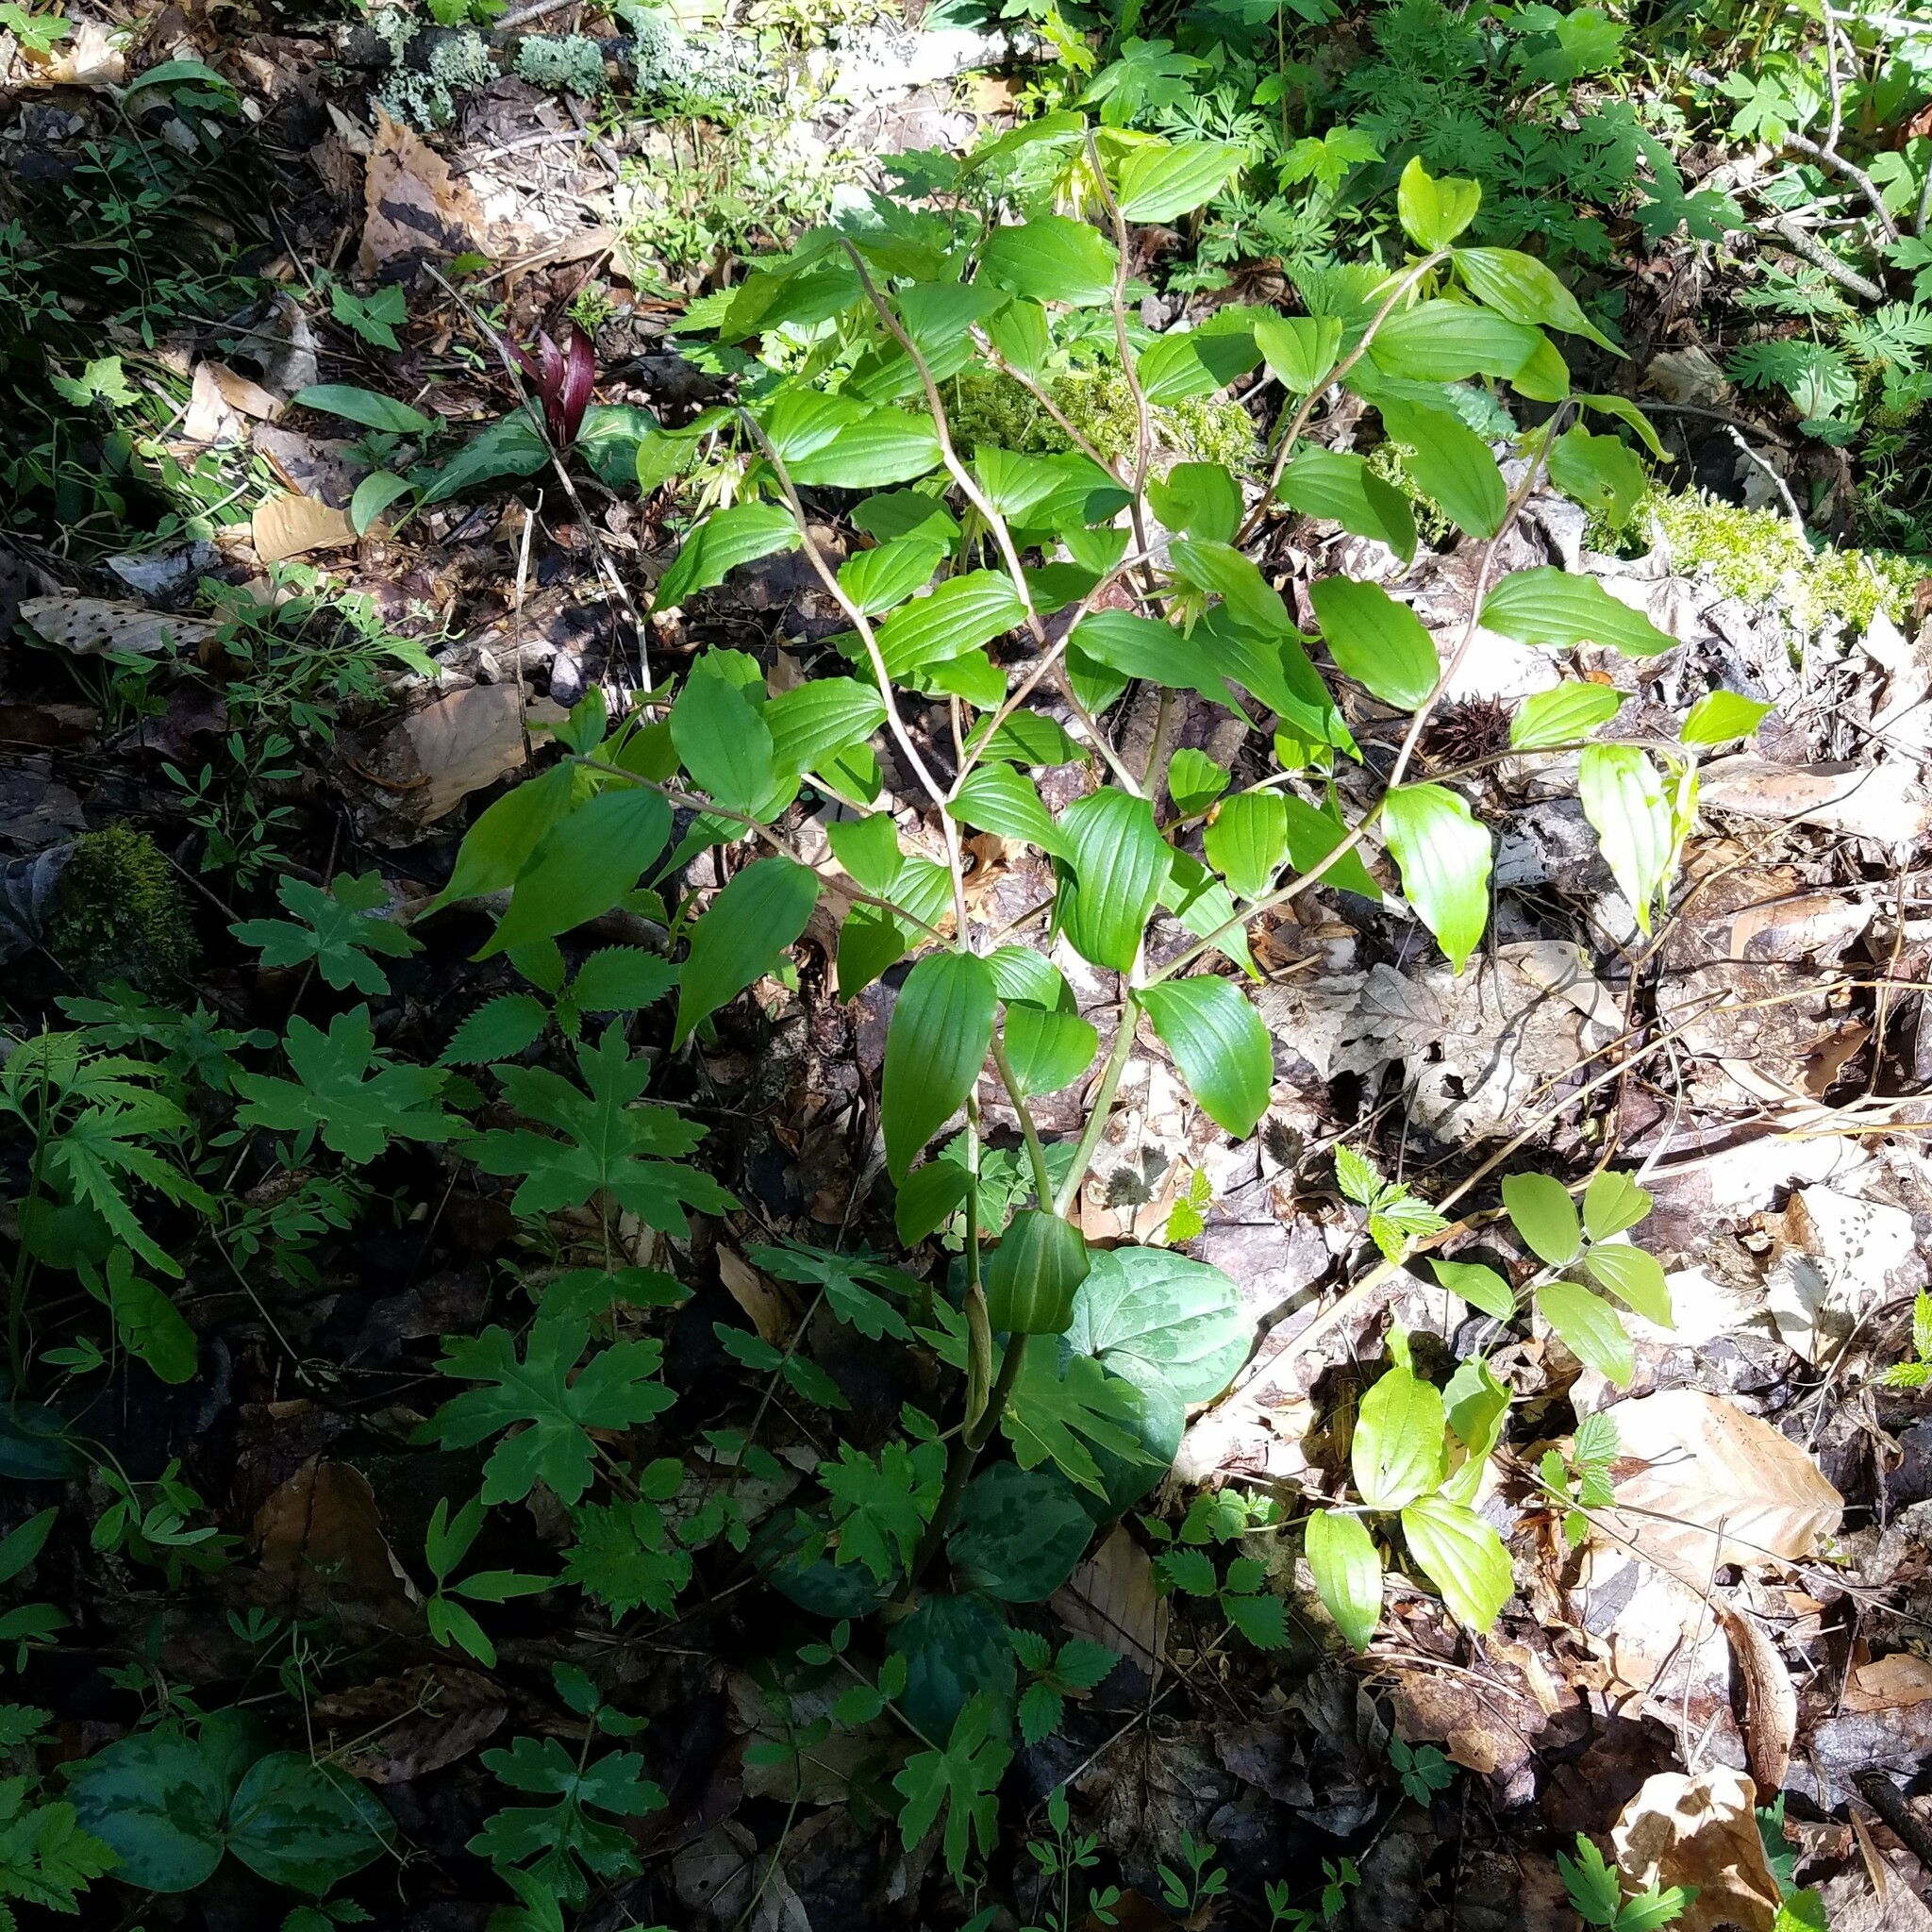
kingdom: Plantae
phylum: Tracheophyta
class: Liliopsida
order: Liliales
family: Liliaceae
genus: Prosartes
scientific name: Prosartes lanuginosa
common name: Hairy mandarin
